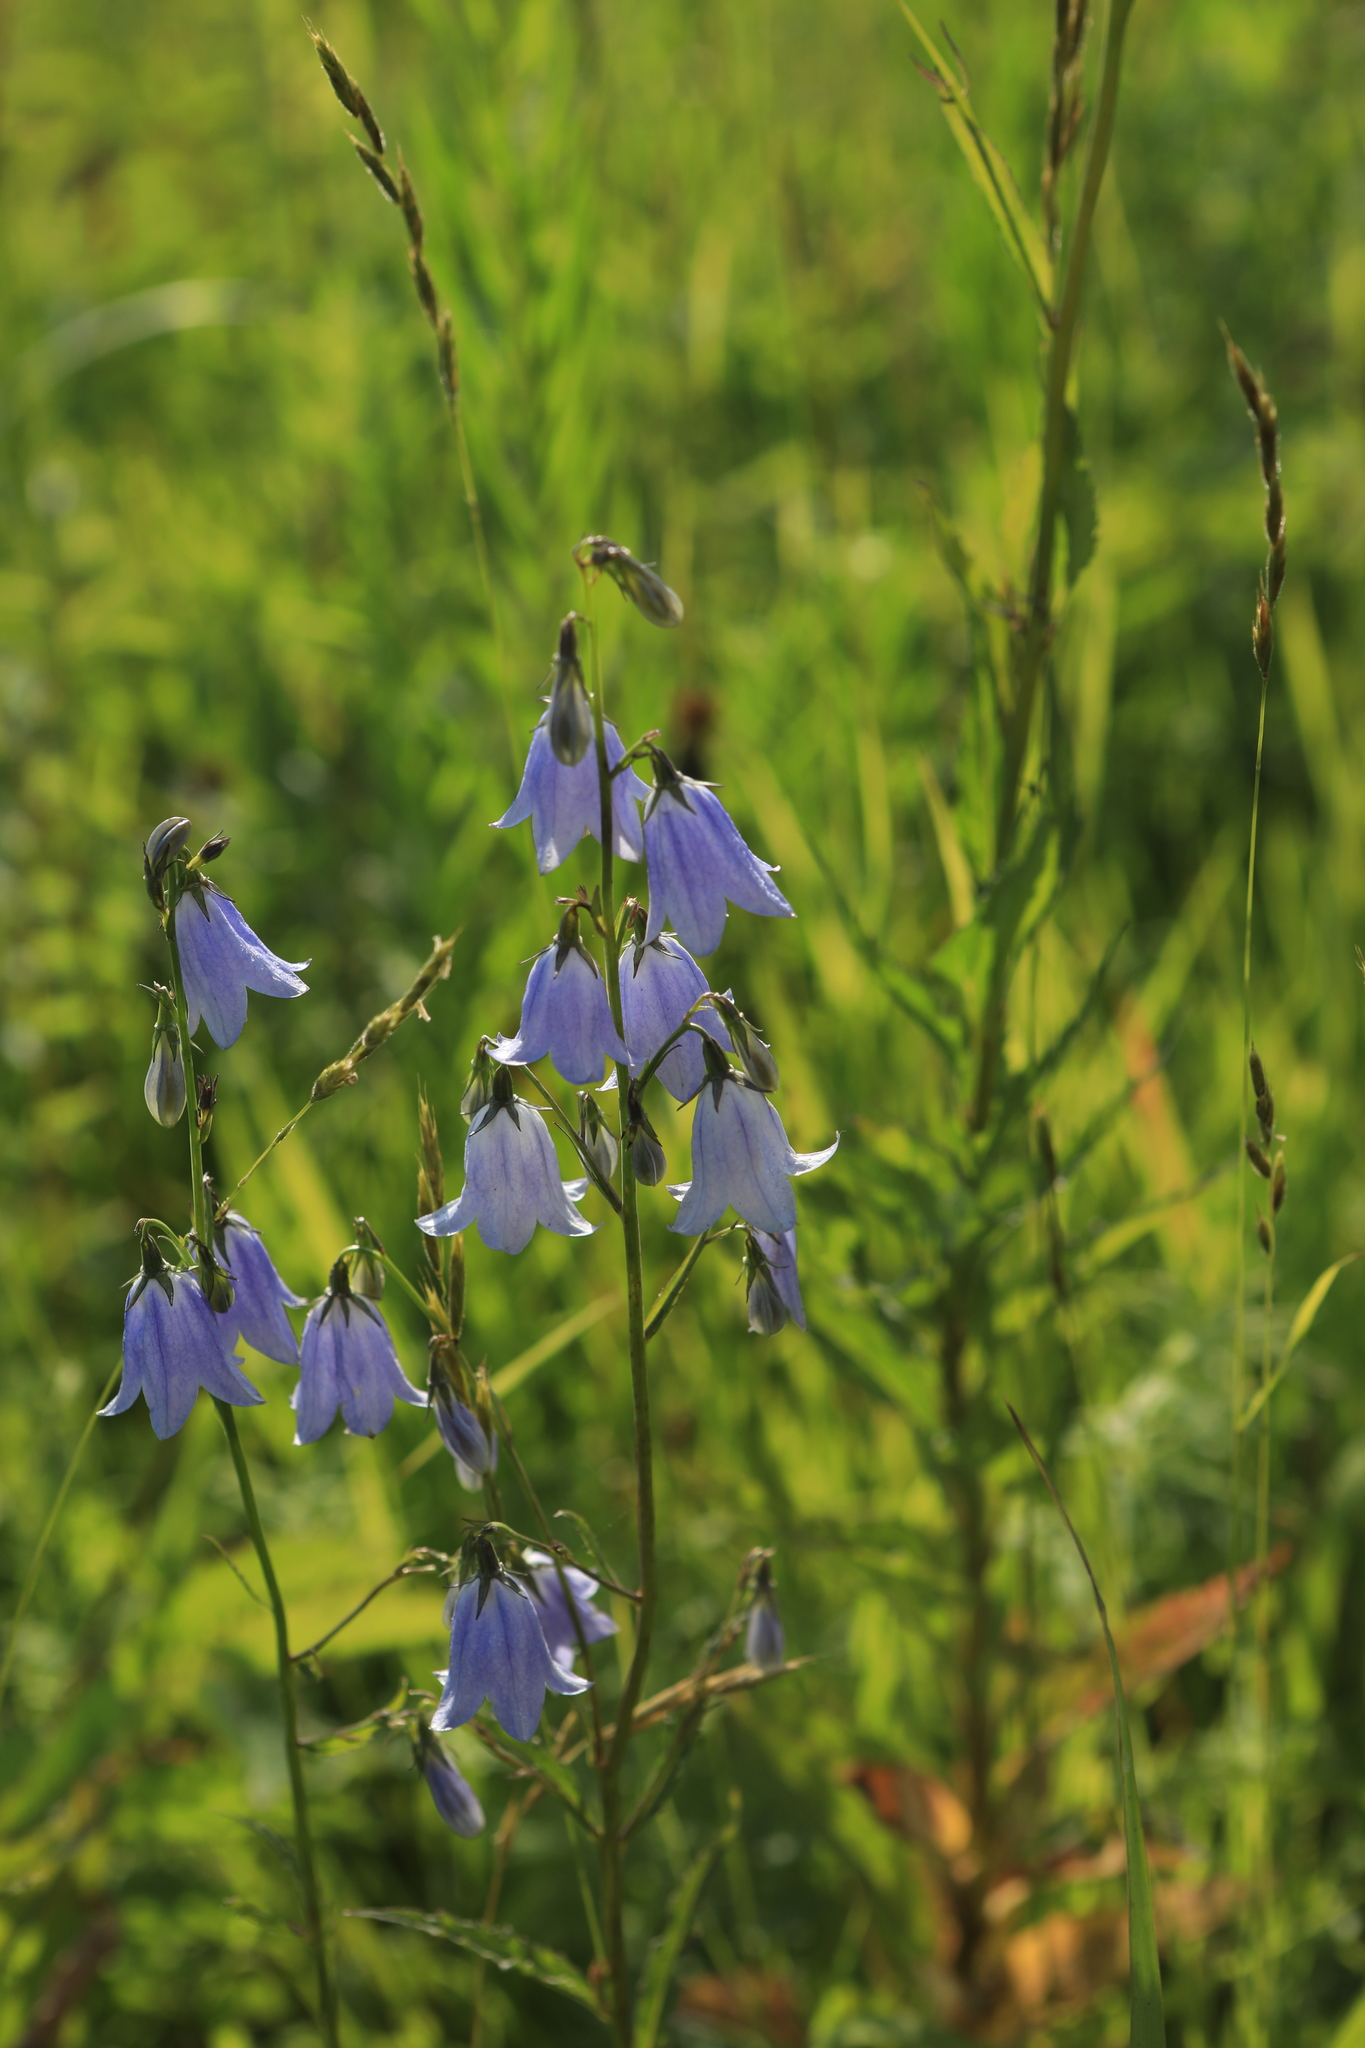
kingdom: Plantae
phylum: Tracheophyta
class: Magnoliopsida
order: Asterales
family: Campanulaceae
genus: Adenophora
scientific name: Adenophora liliifolia
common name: Lilyleaf ladybells
